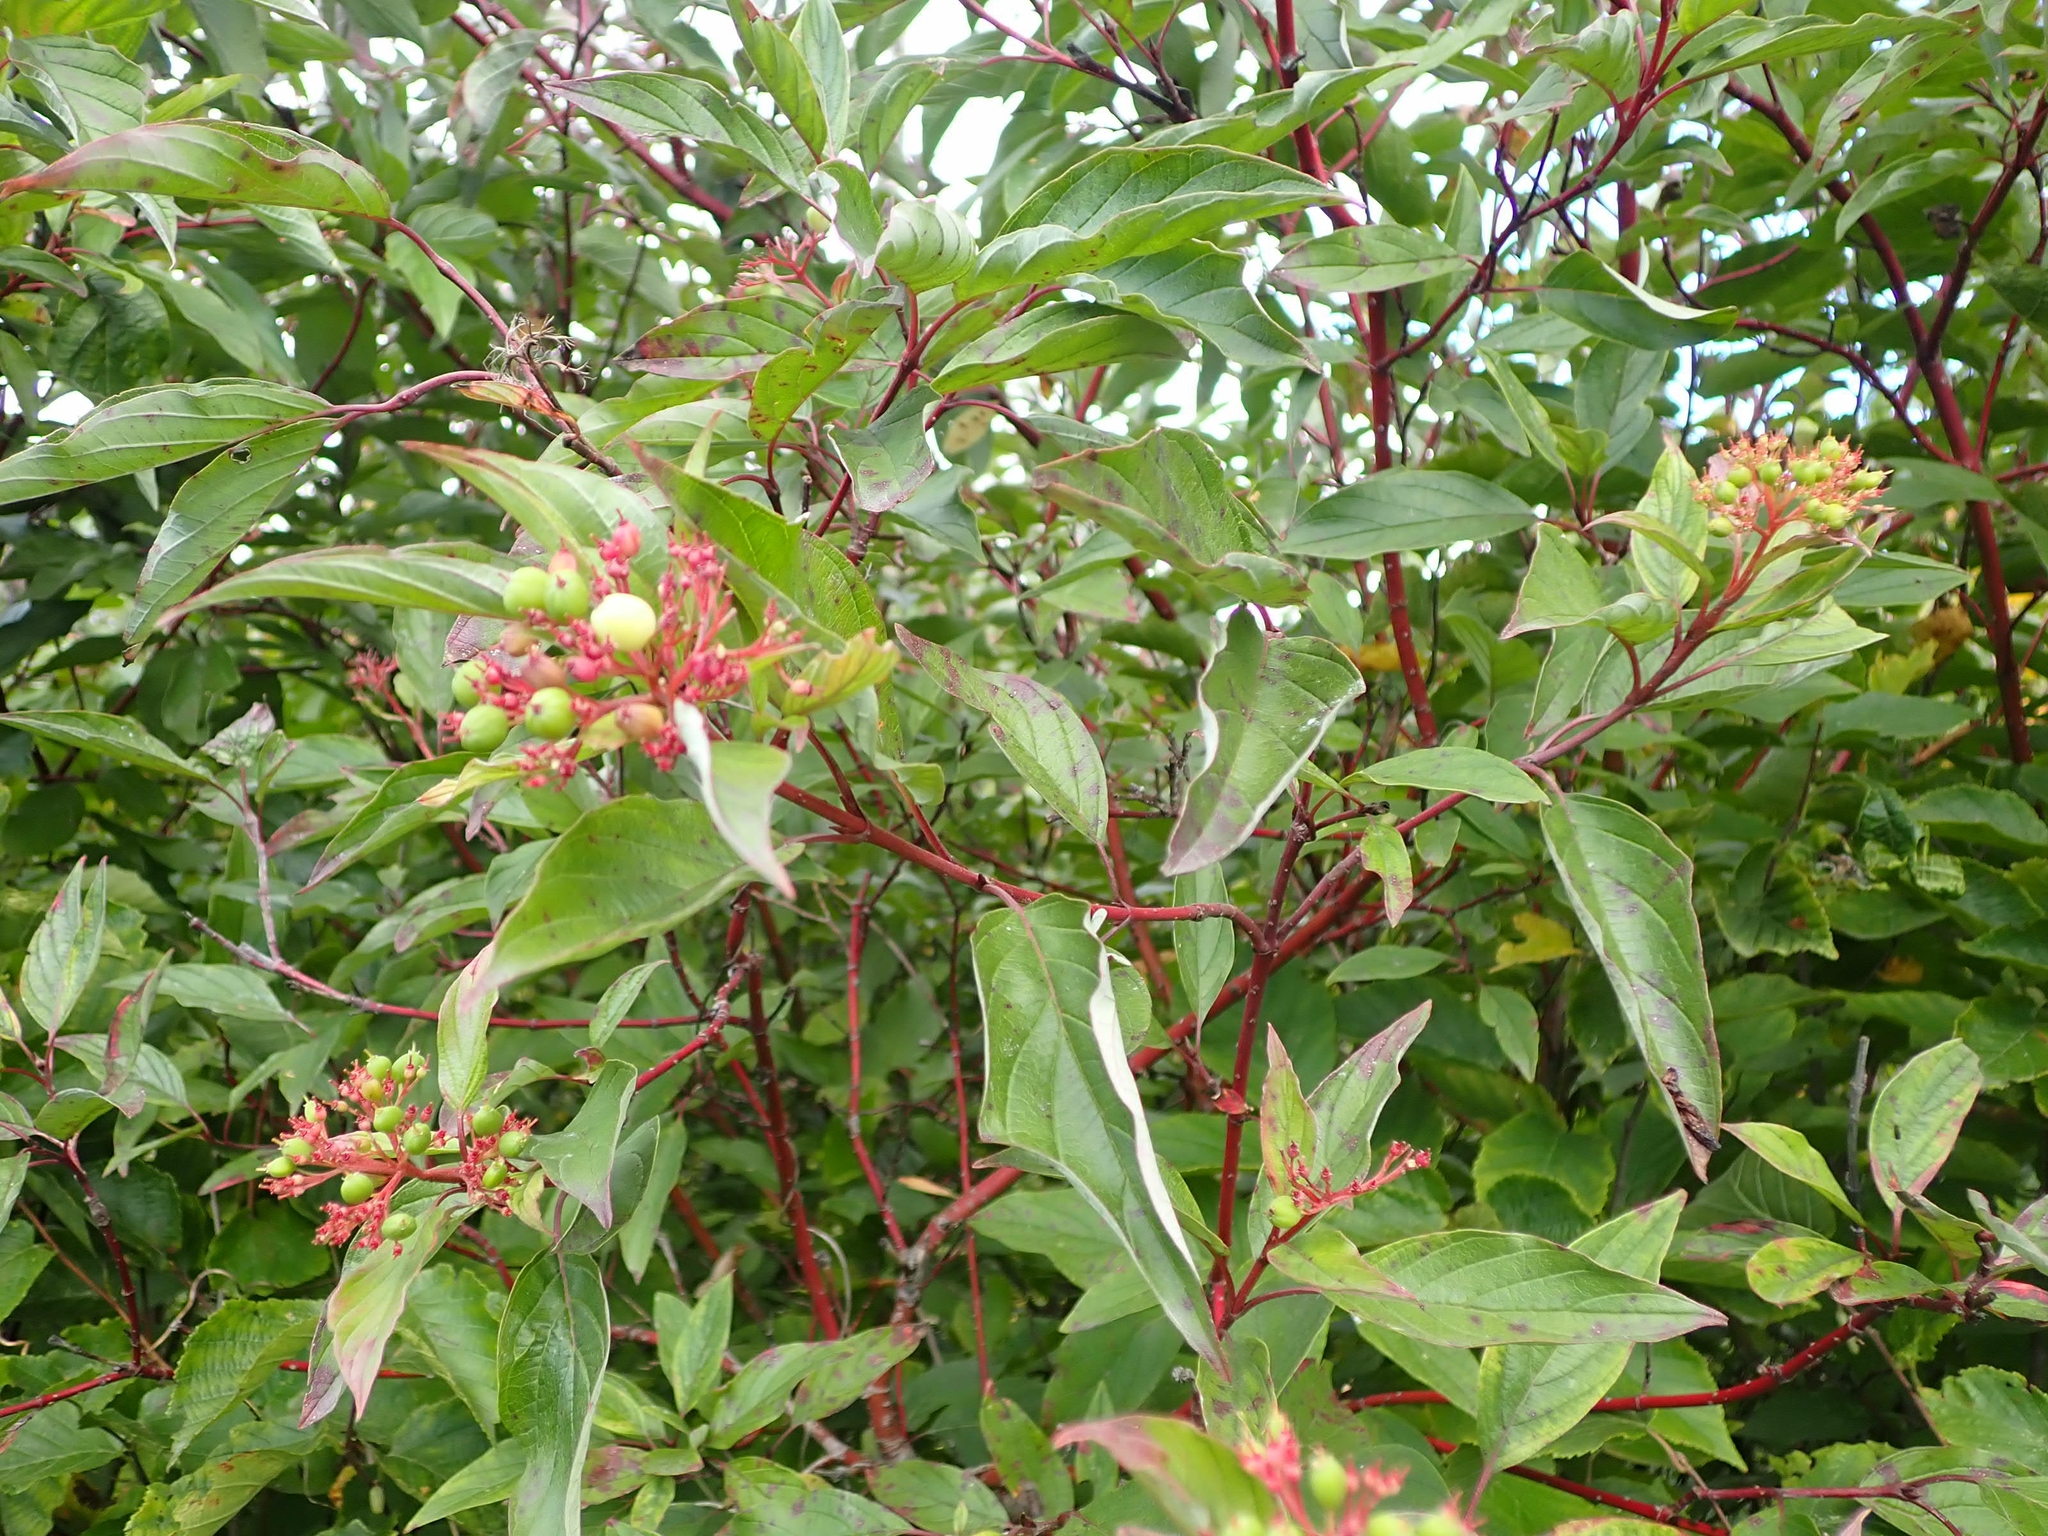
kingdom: Plantae
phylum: Tracheophyta
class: Magnoliopsida
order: Cornales
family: Cornaceae
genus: Cornus
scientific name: Cornus sericea
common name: Red-osier dogwood
